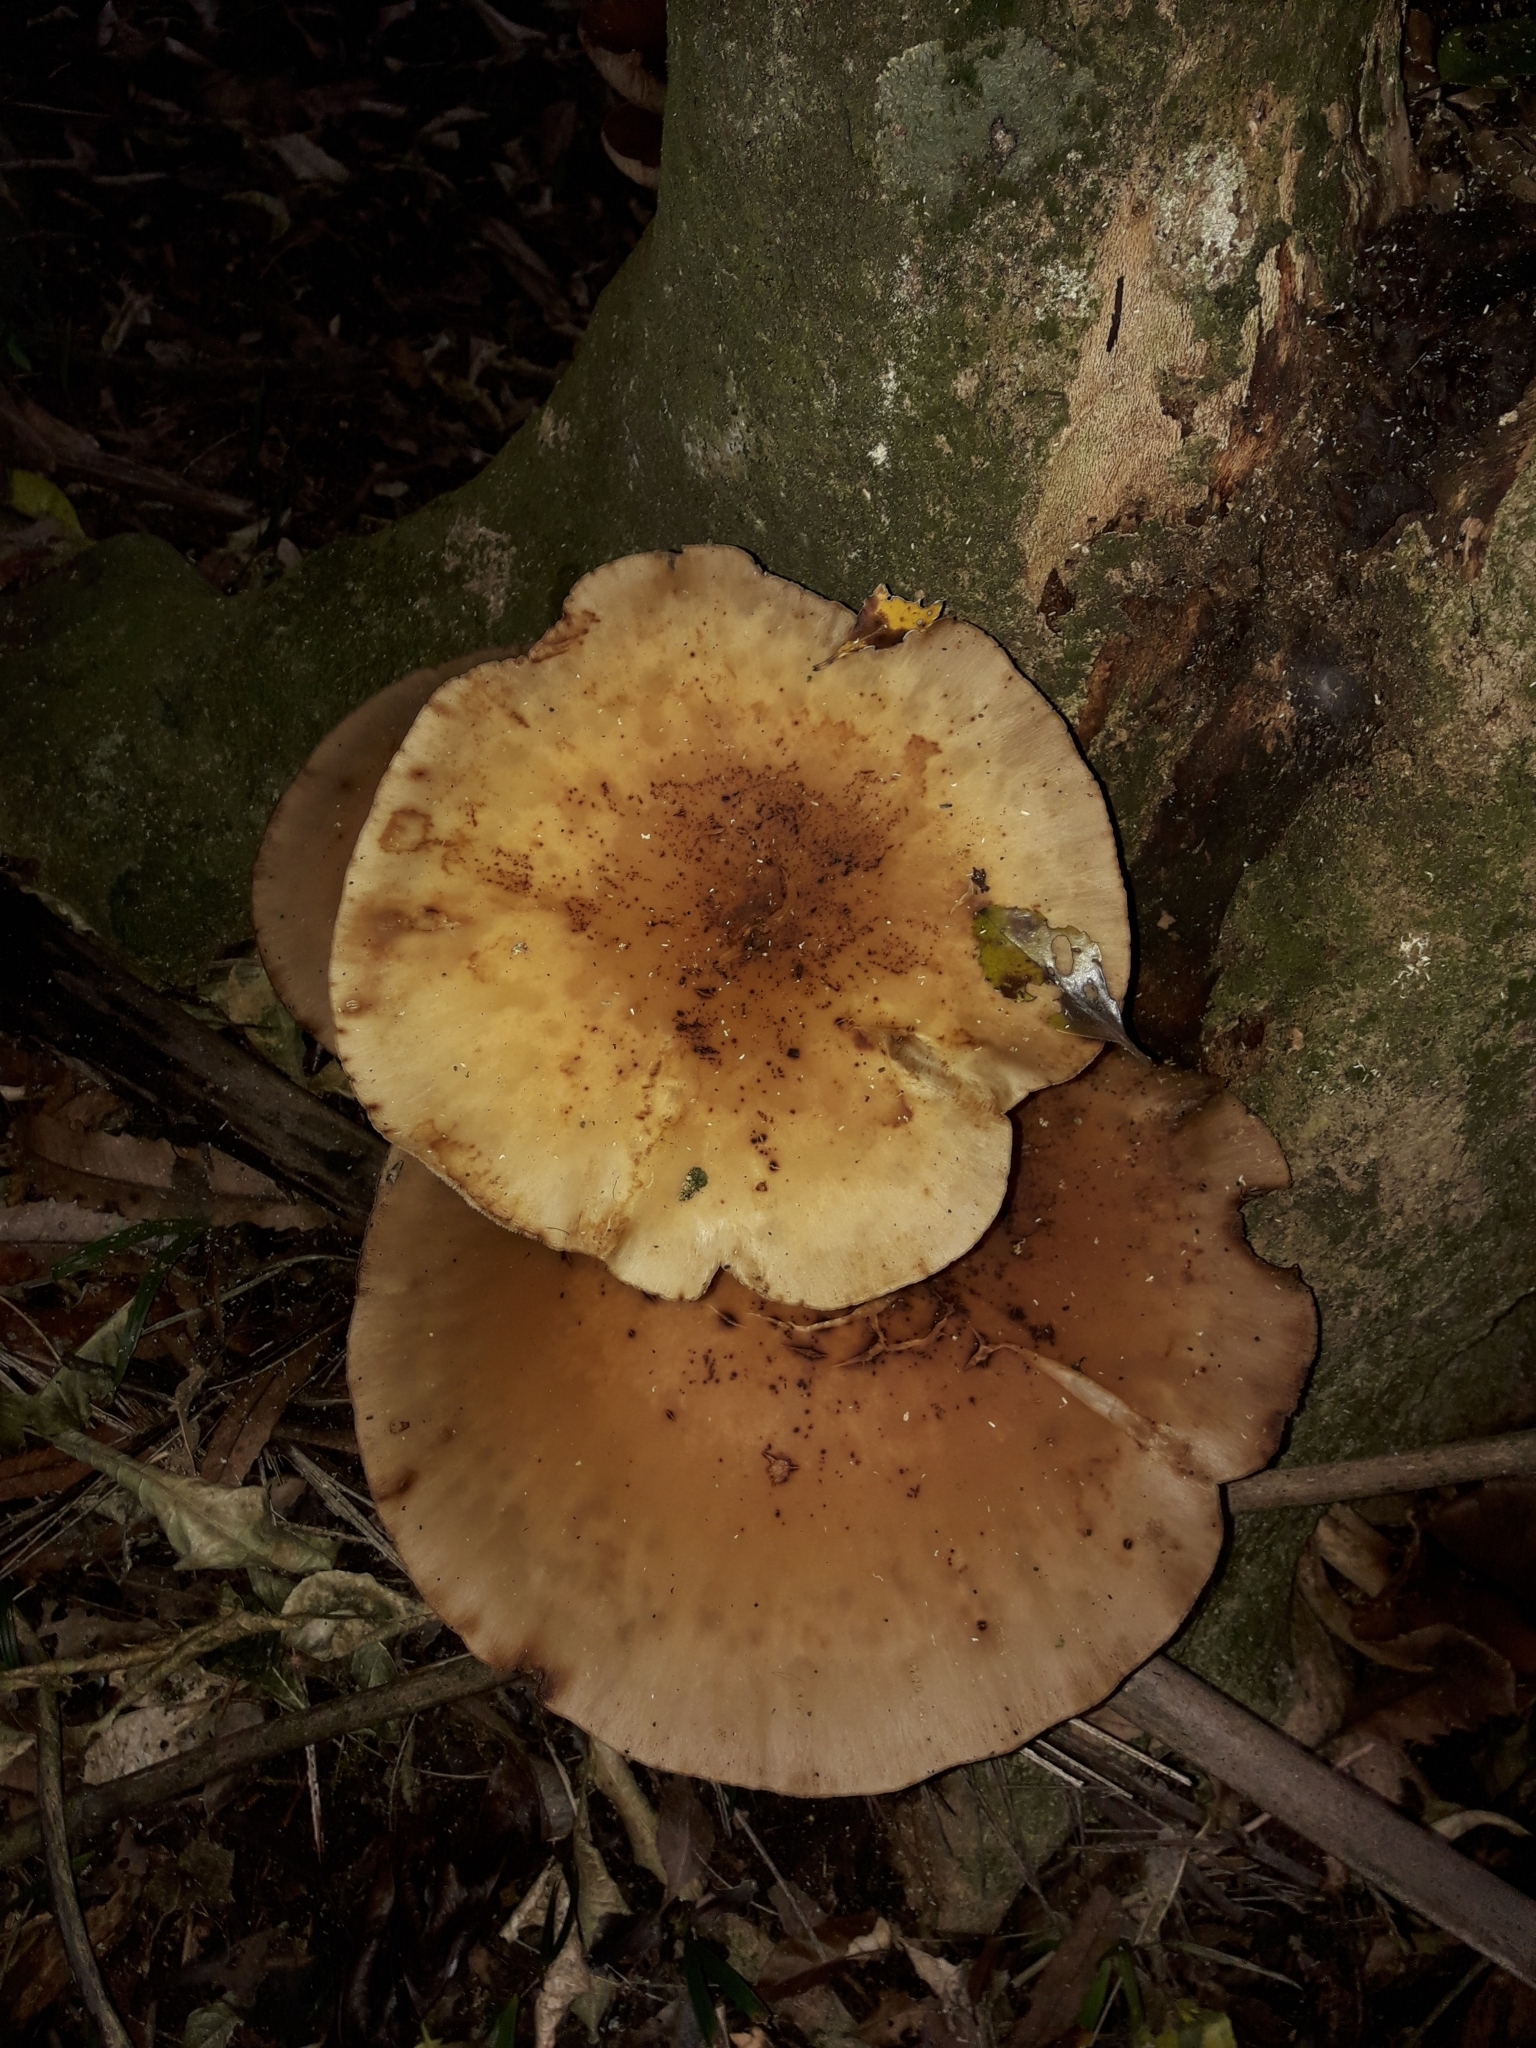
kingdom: Fungi
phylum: Basidiomycota
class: Agaricomycetes
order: Agaricales
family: Tubariaceae
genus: Cyclocybe
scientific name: Cyclocybe parasitica
